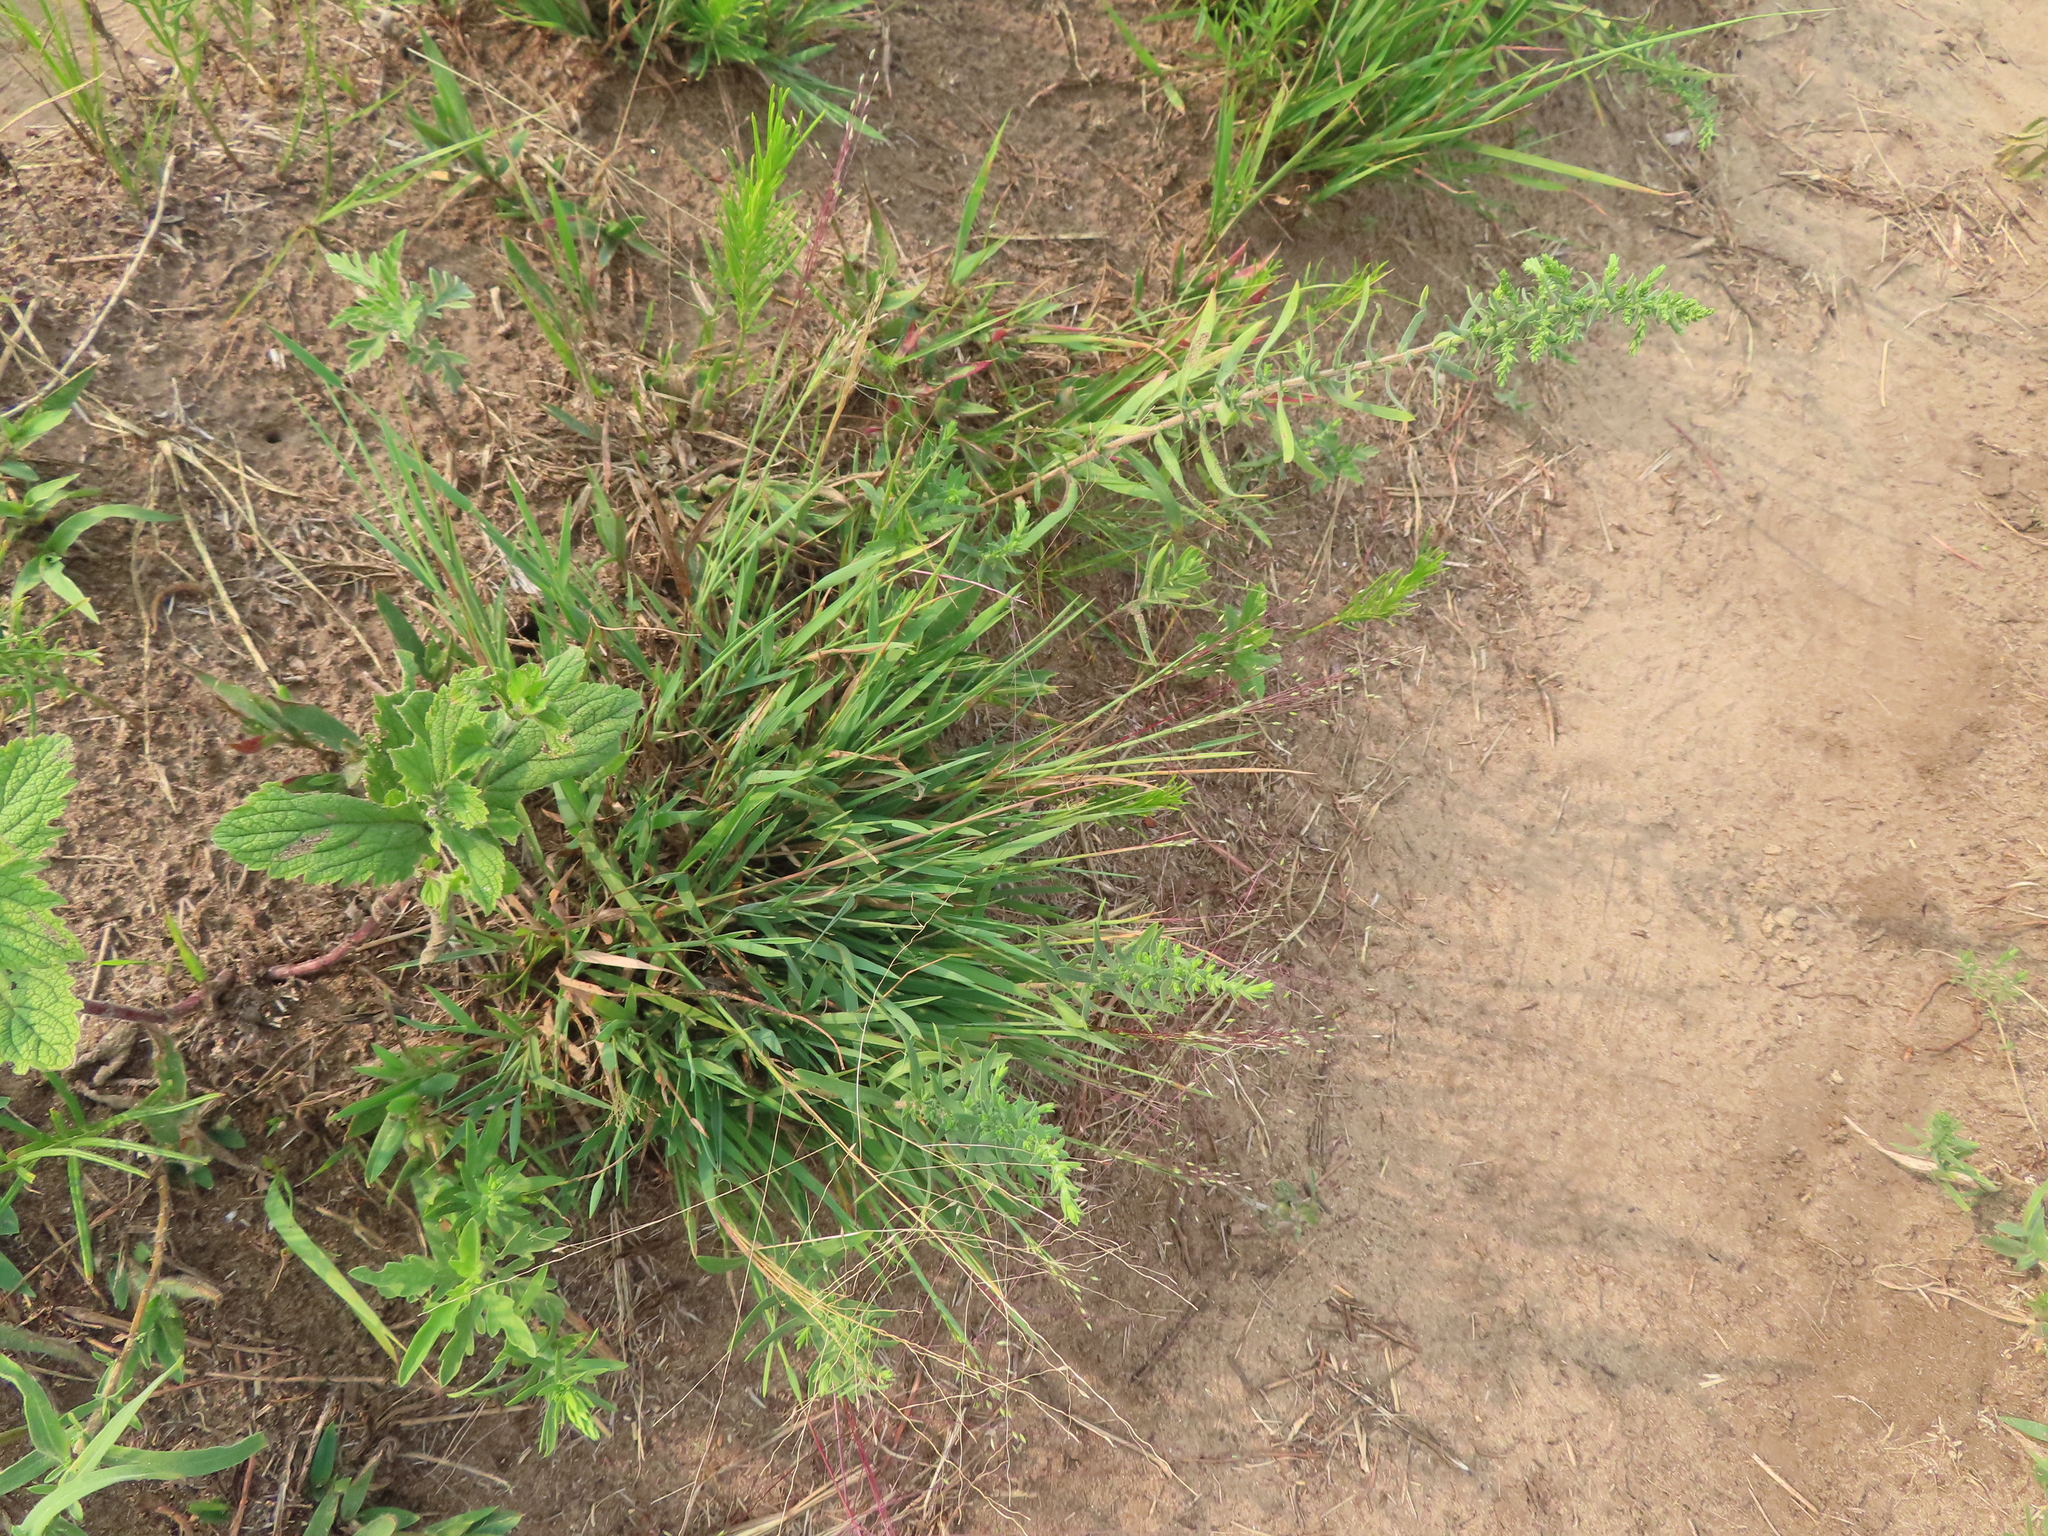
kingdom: Plantae
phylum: Tracheophyta
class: Liliopsida
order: Poales
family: Poaceae
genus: Digitaria
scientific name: Digitaria cognata
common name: Fall witchgrass
